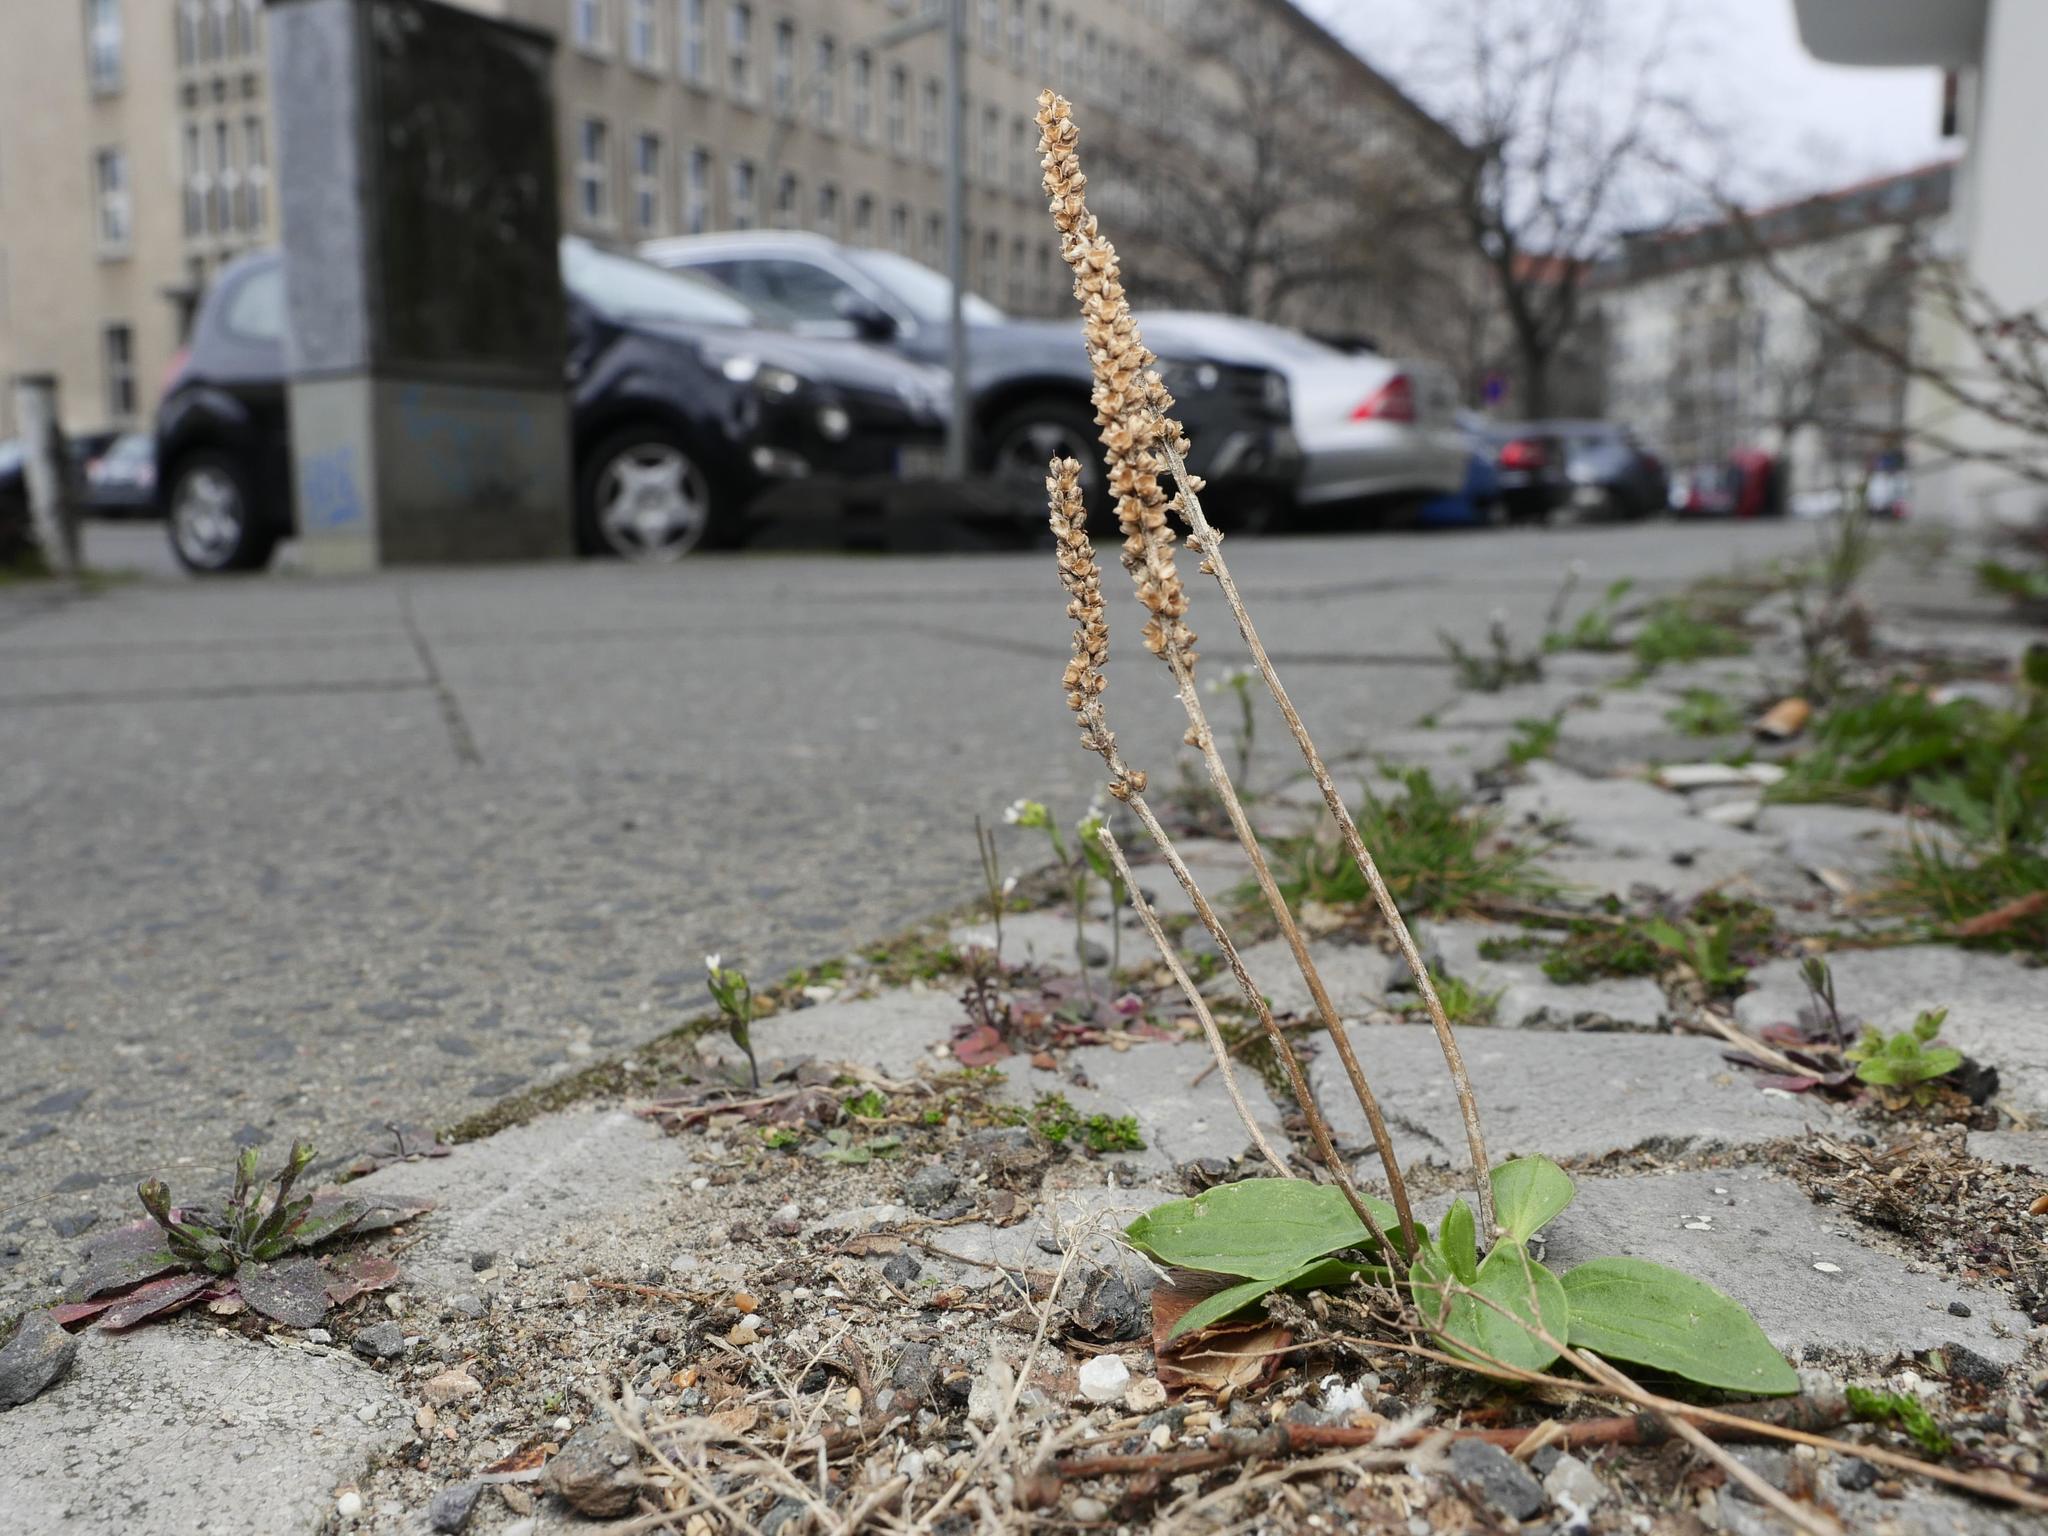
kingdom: Plantae
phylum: Tracheophyta
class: Magnoliopsida
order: Lamiales
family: Plantaginaceae
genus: Plantago
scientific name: Plantago major
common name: Common plantain
